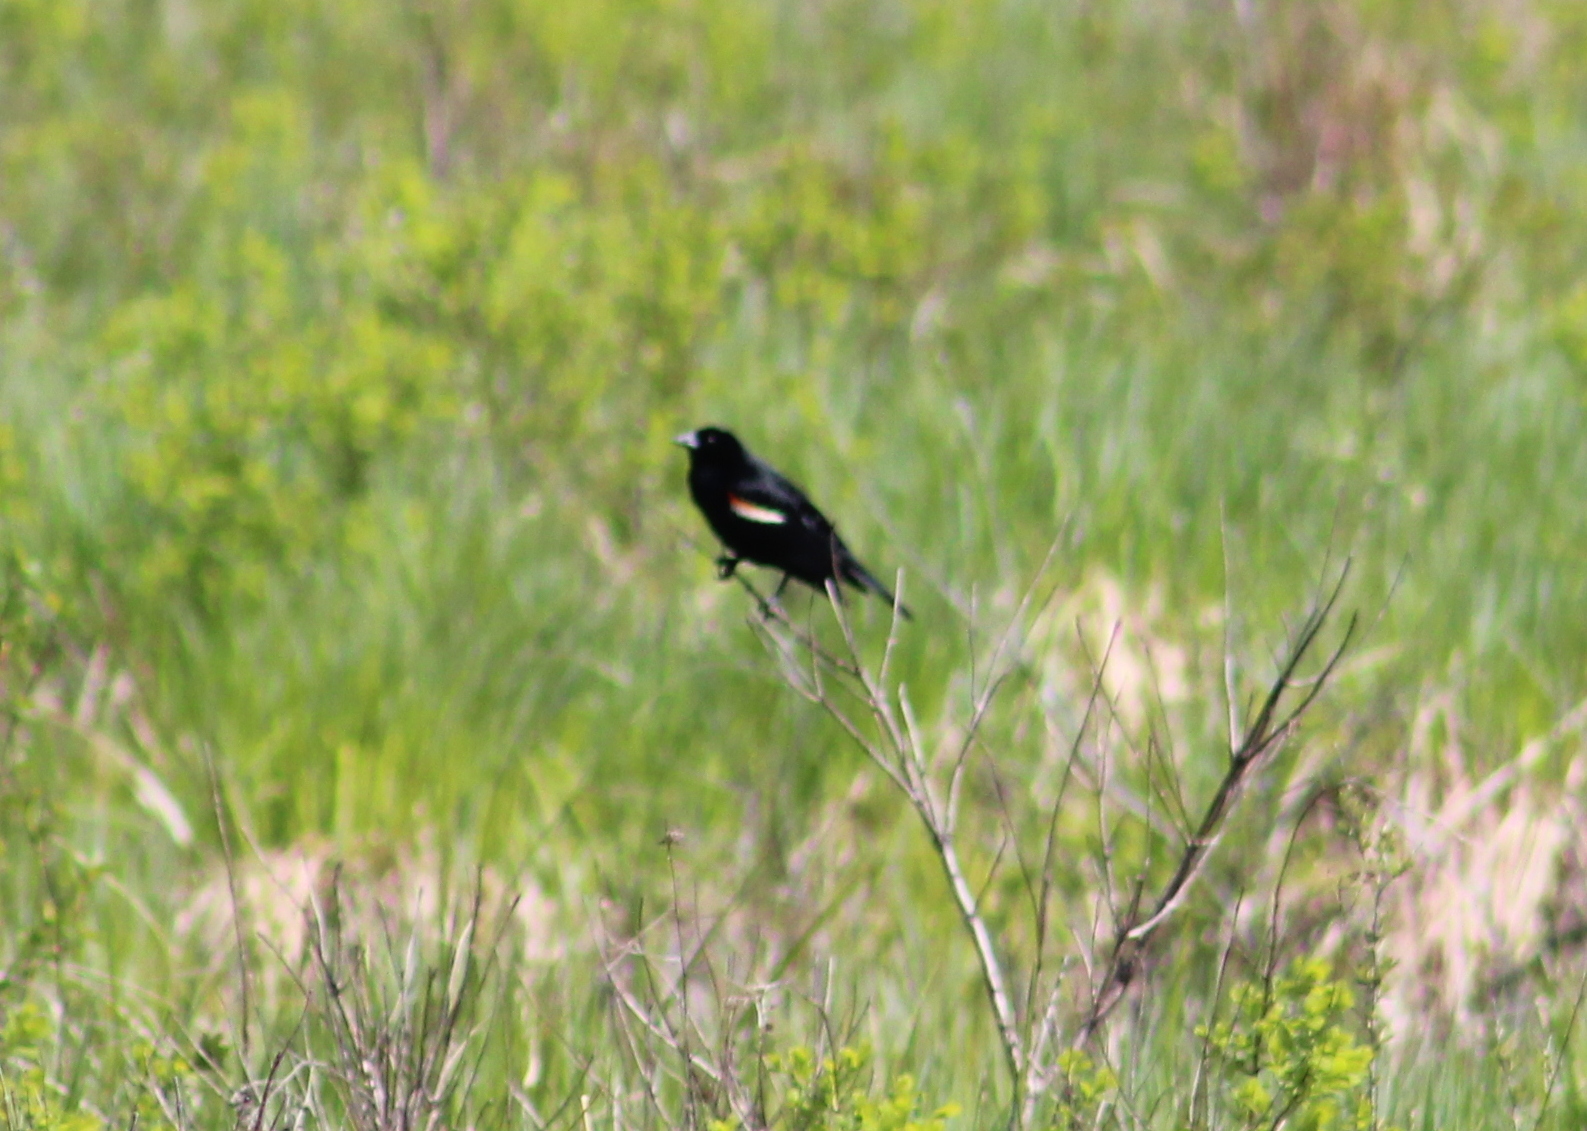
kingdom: Animalia
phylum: Chordata
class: Aves
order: Passeriformes
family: Icteridae
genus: Agelaius
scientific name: Agelaius phoeniceus
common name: Red-winged blackbird
